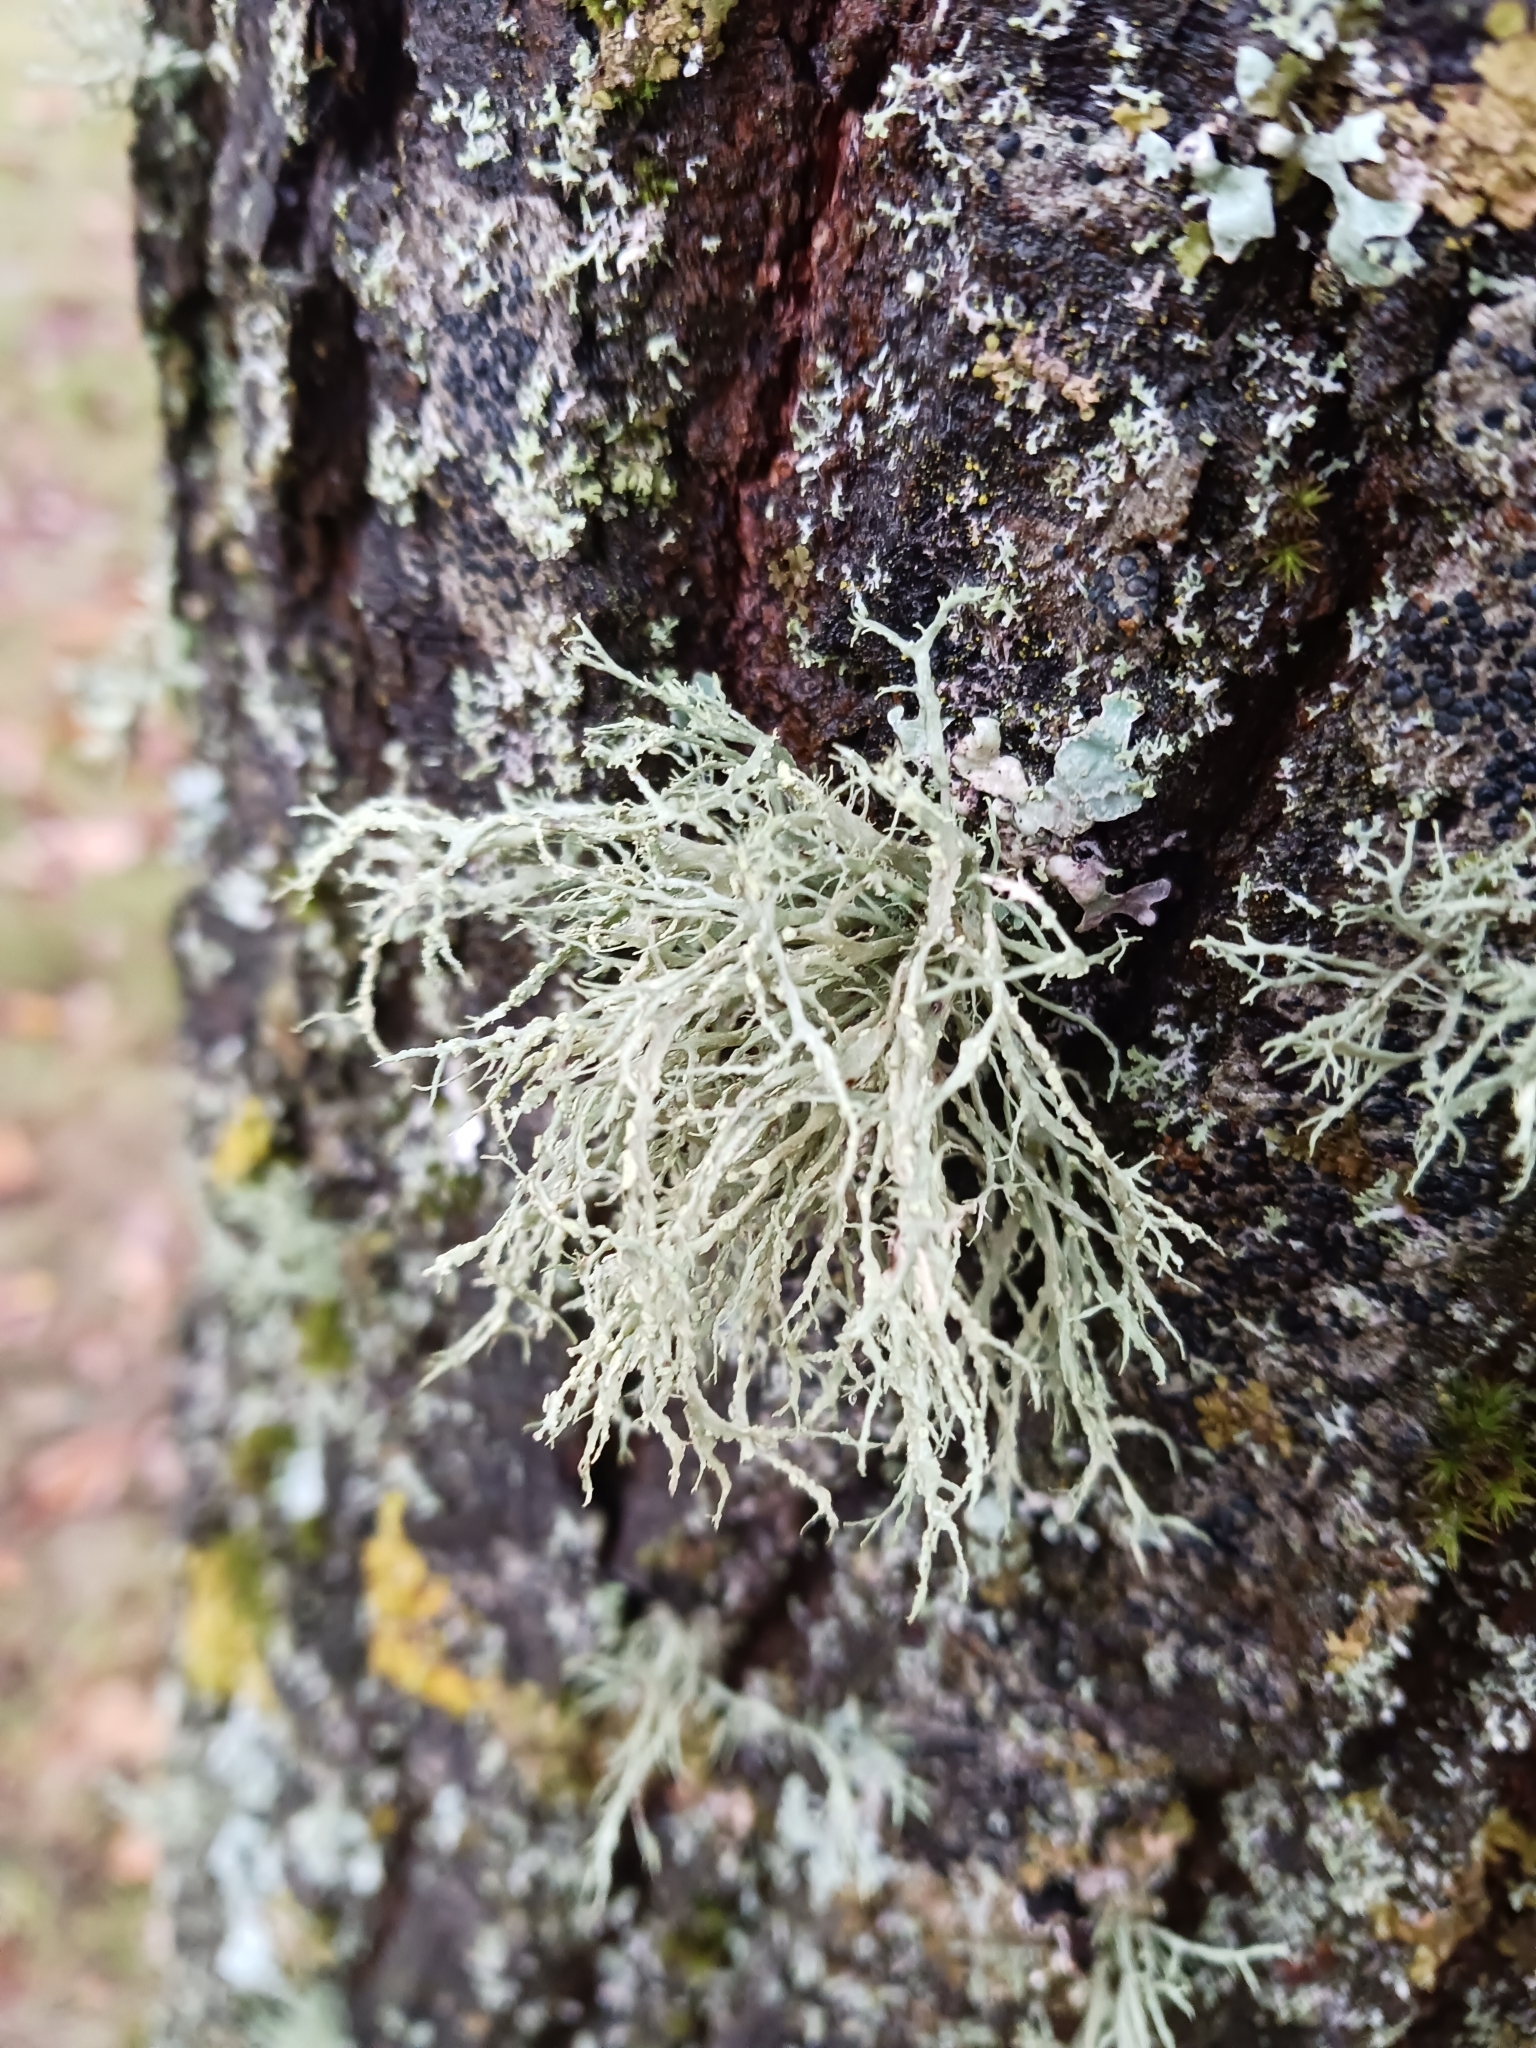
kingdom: Fungi
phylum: Ascomycota
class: Lecanoromycetes
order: Lecanorales
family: Ramalinaceae
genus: Ramalina
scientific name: Ramalina farinacea
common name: Farinose cartilage lichen
